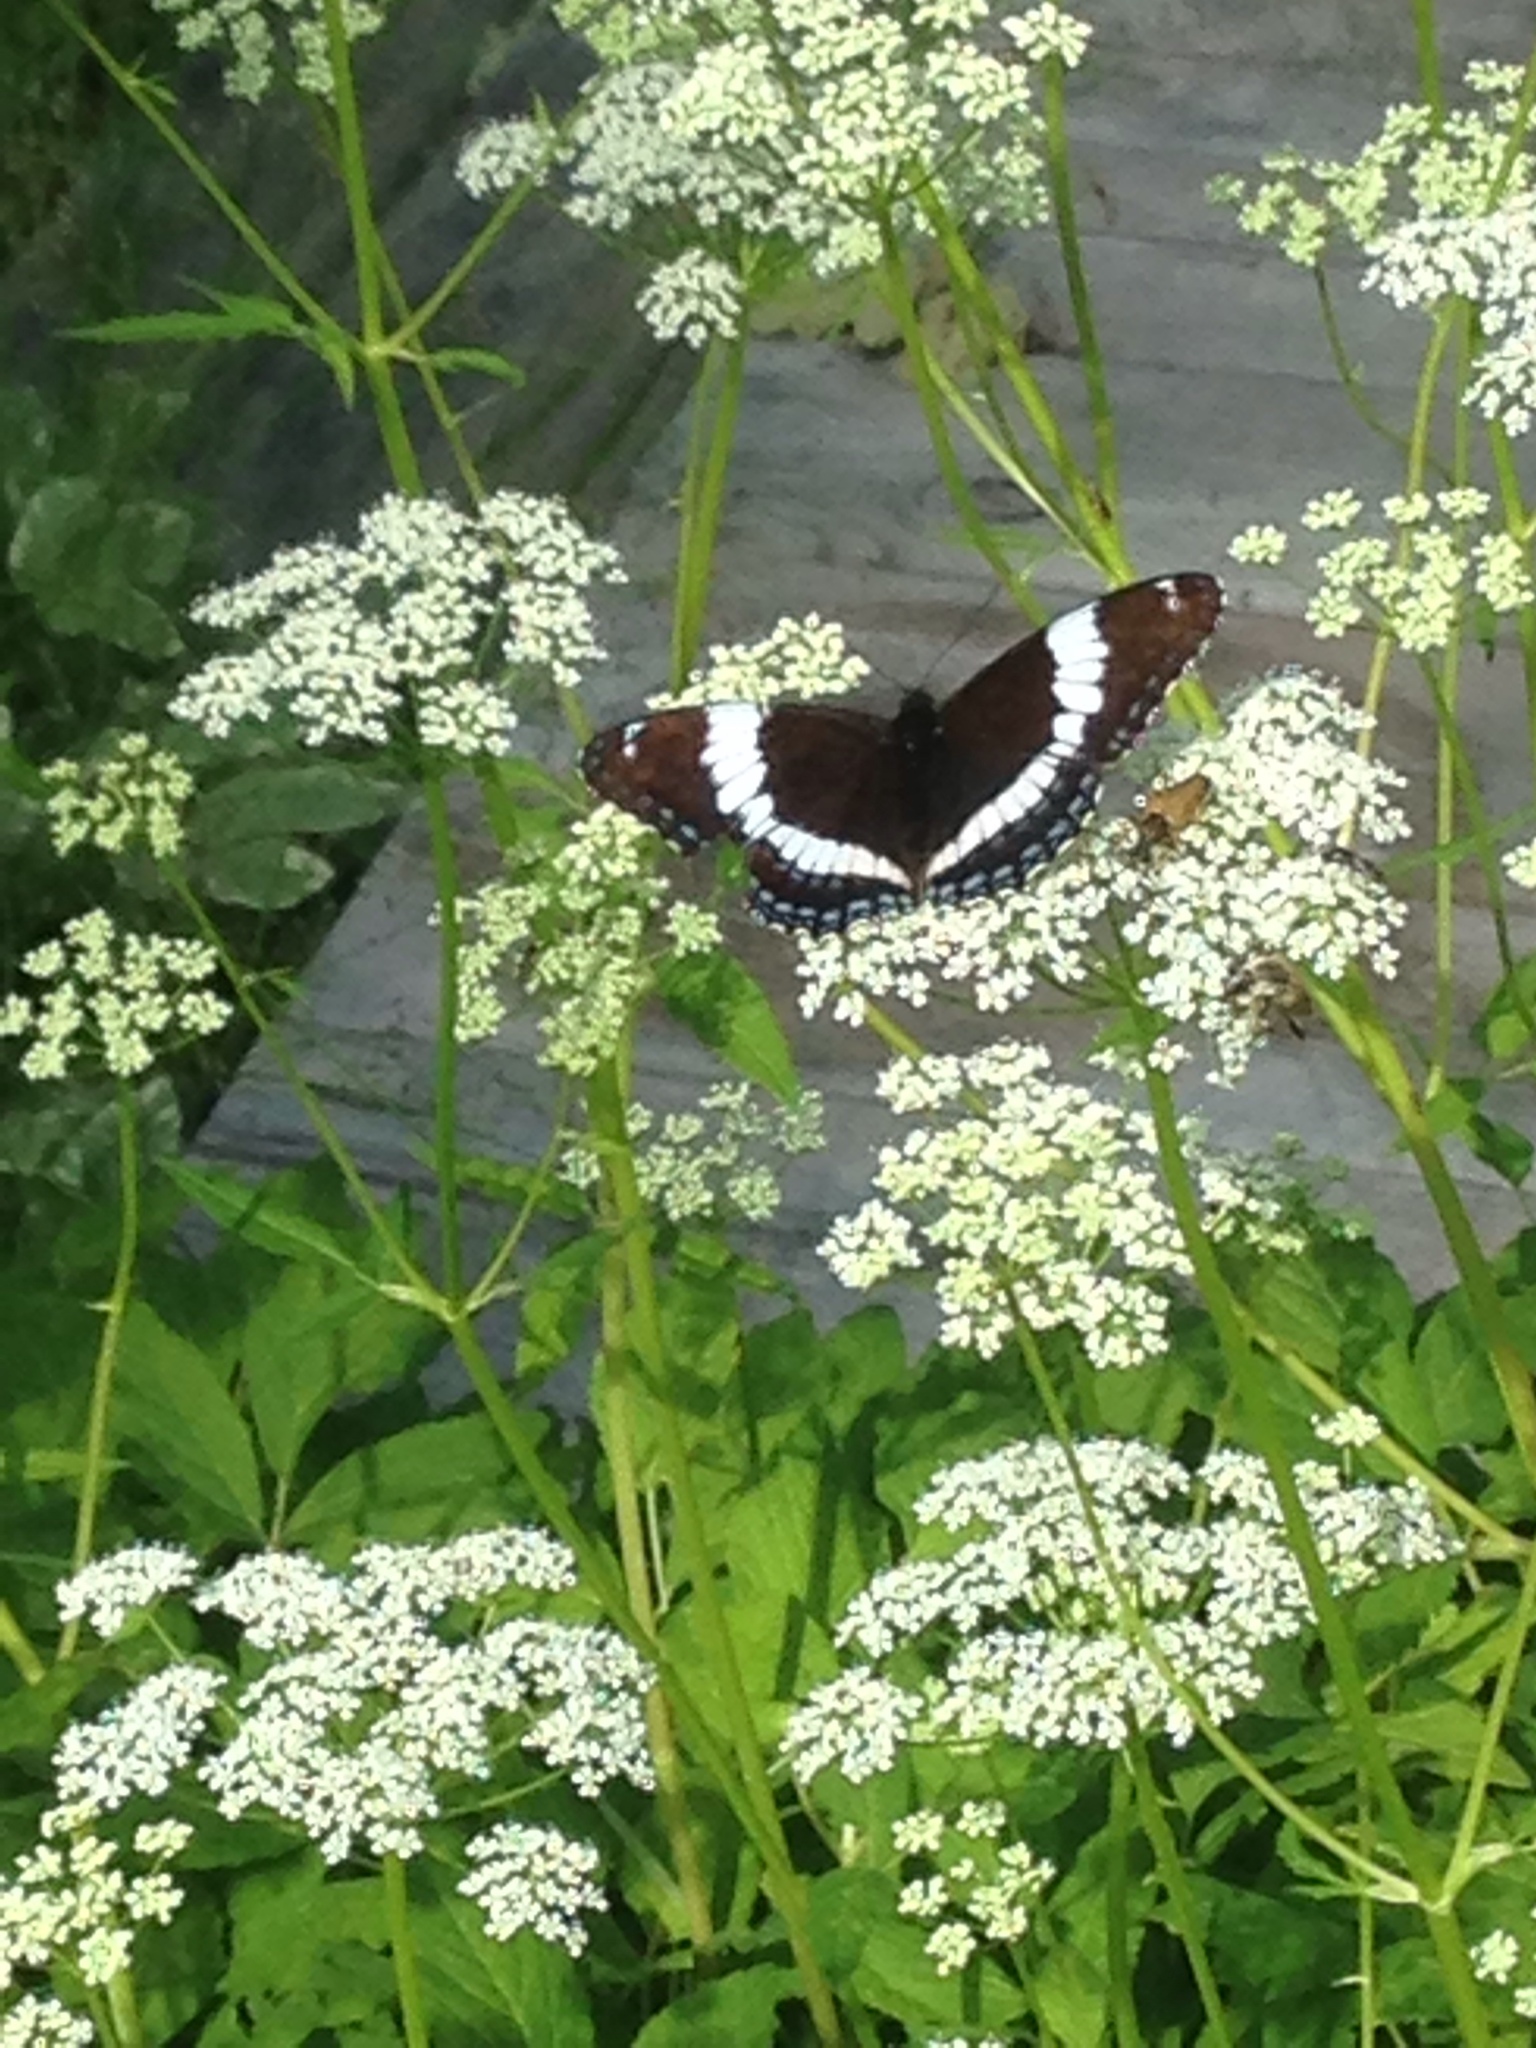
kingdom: Animalia
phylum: Arthropoda
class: Insecta
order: Lepidoptera
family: Nymphalidae
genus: Limenitis
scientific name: Limenitis arthemis
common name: Red-spotted admiral
